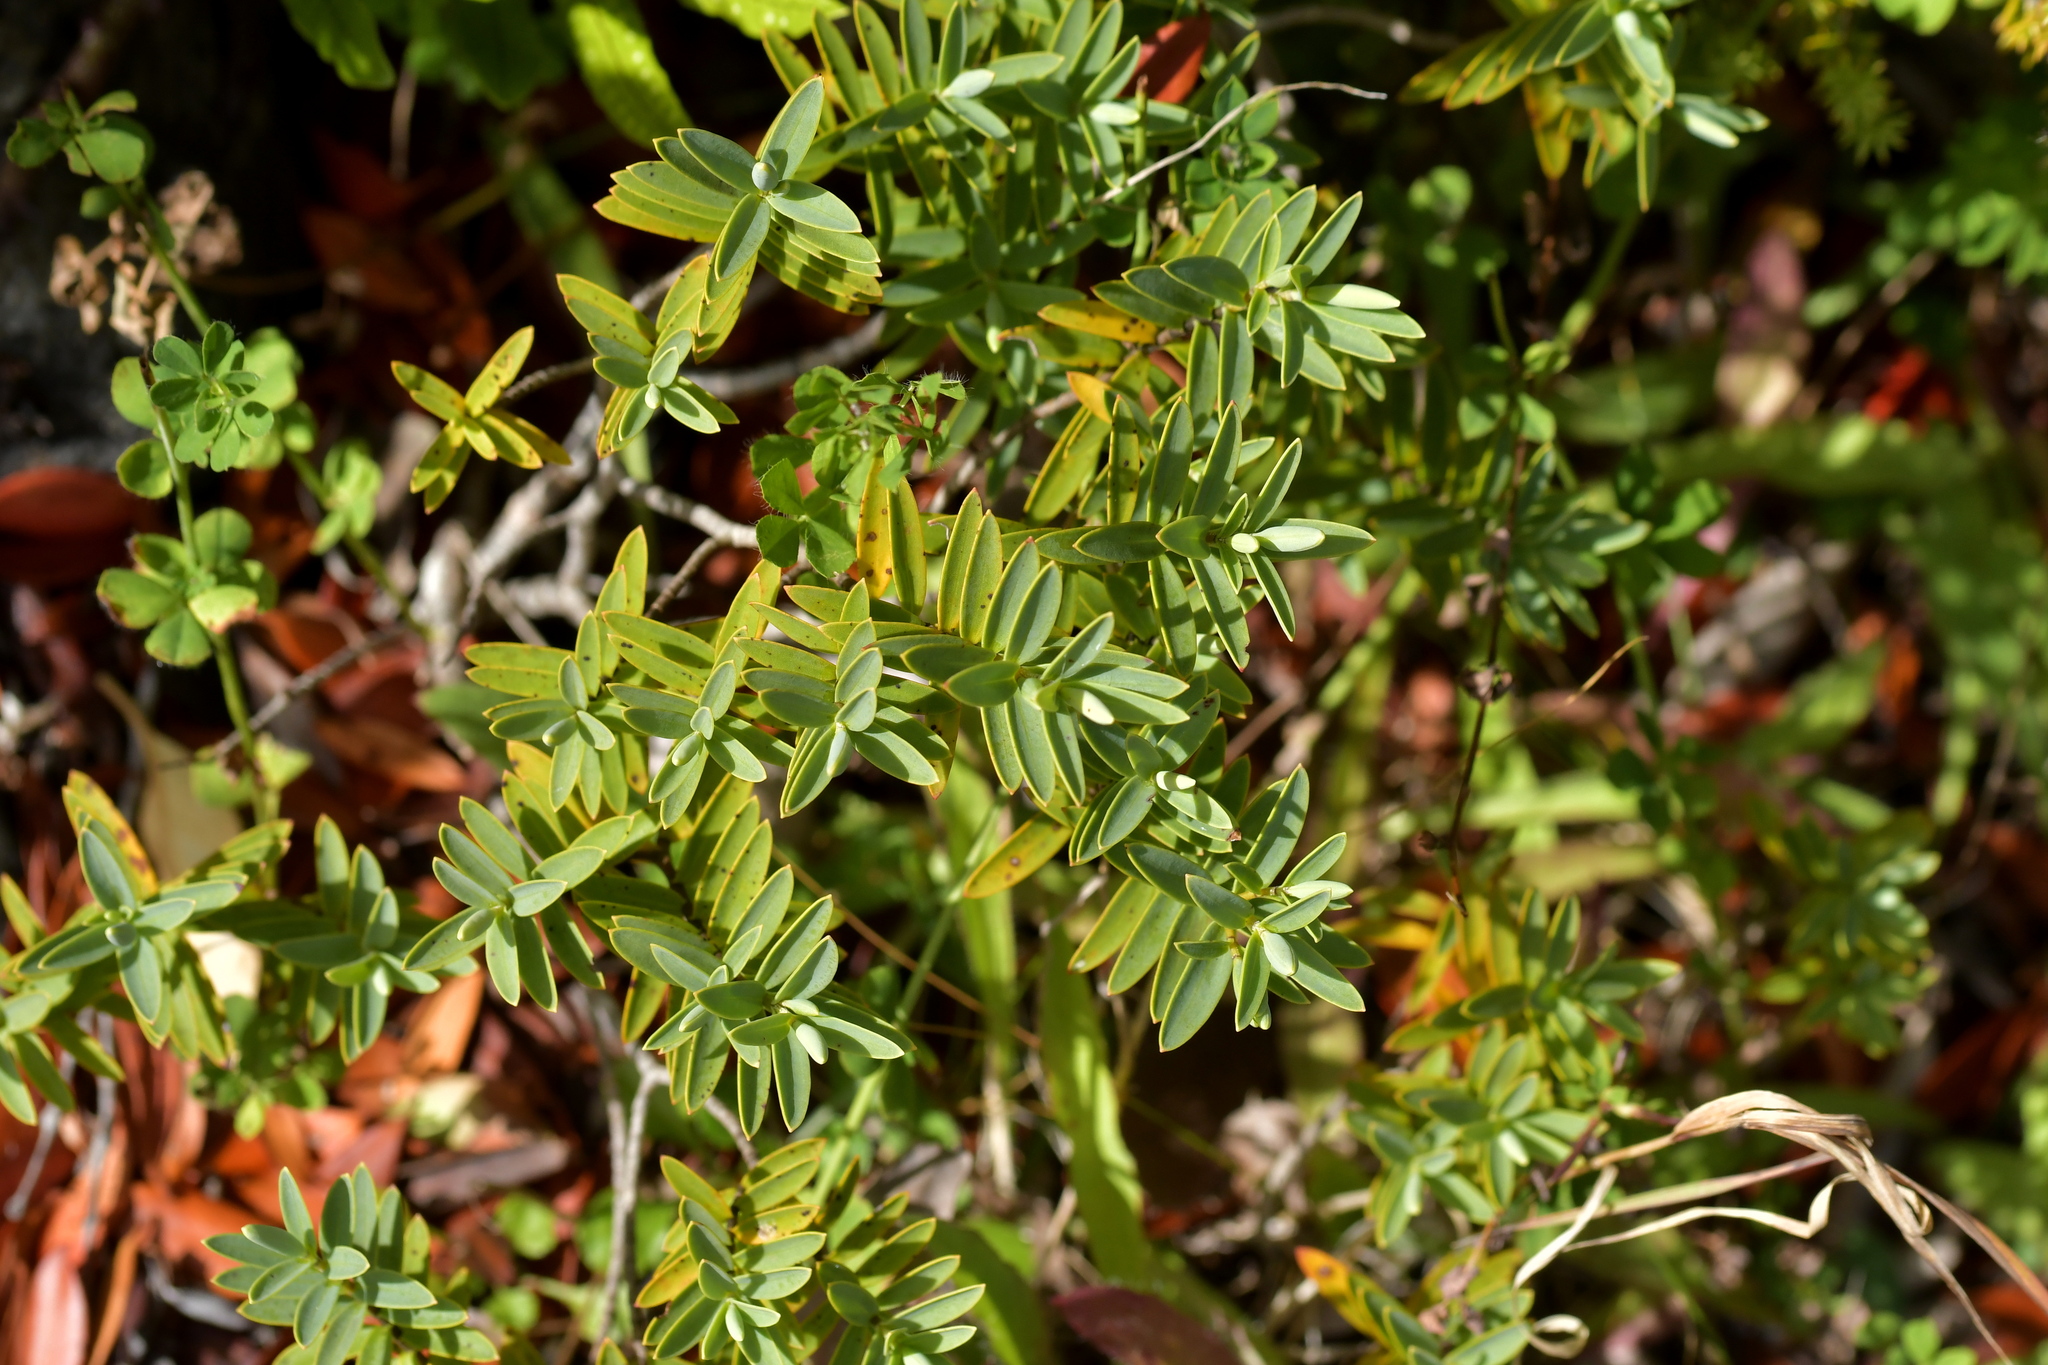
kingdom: Plantae
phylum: Tracheophyta
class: Magnoliopsida
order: Lamiales
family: Plantaginaceae
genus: Veronica
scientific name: Veronica albicans
